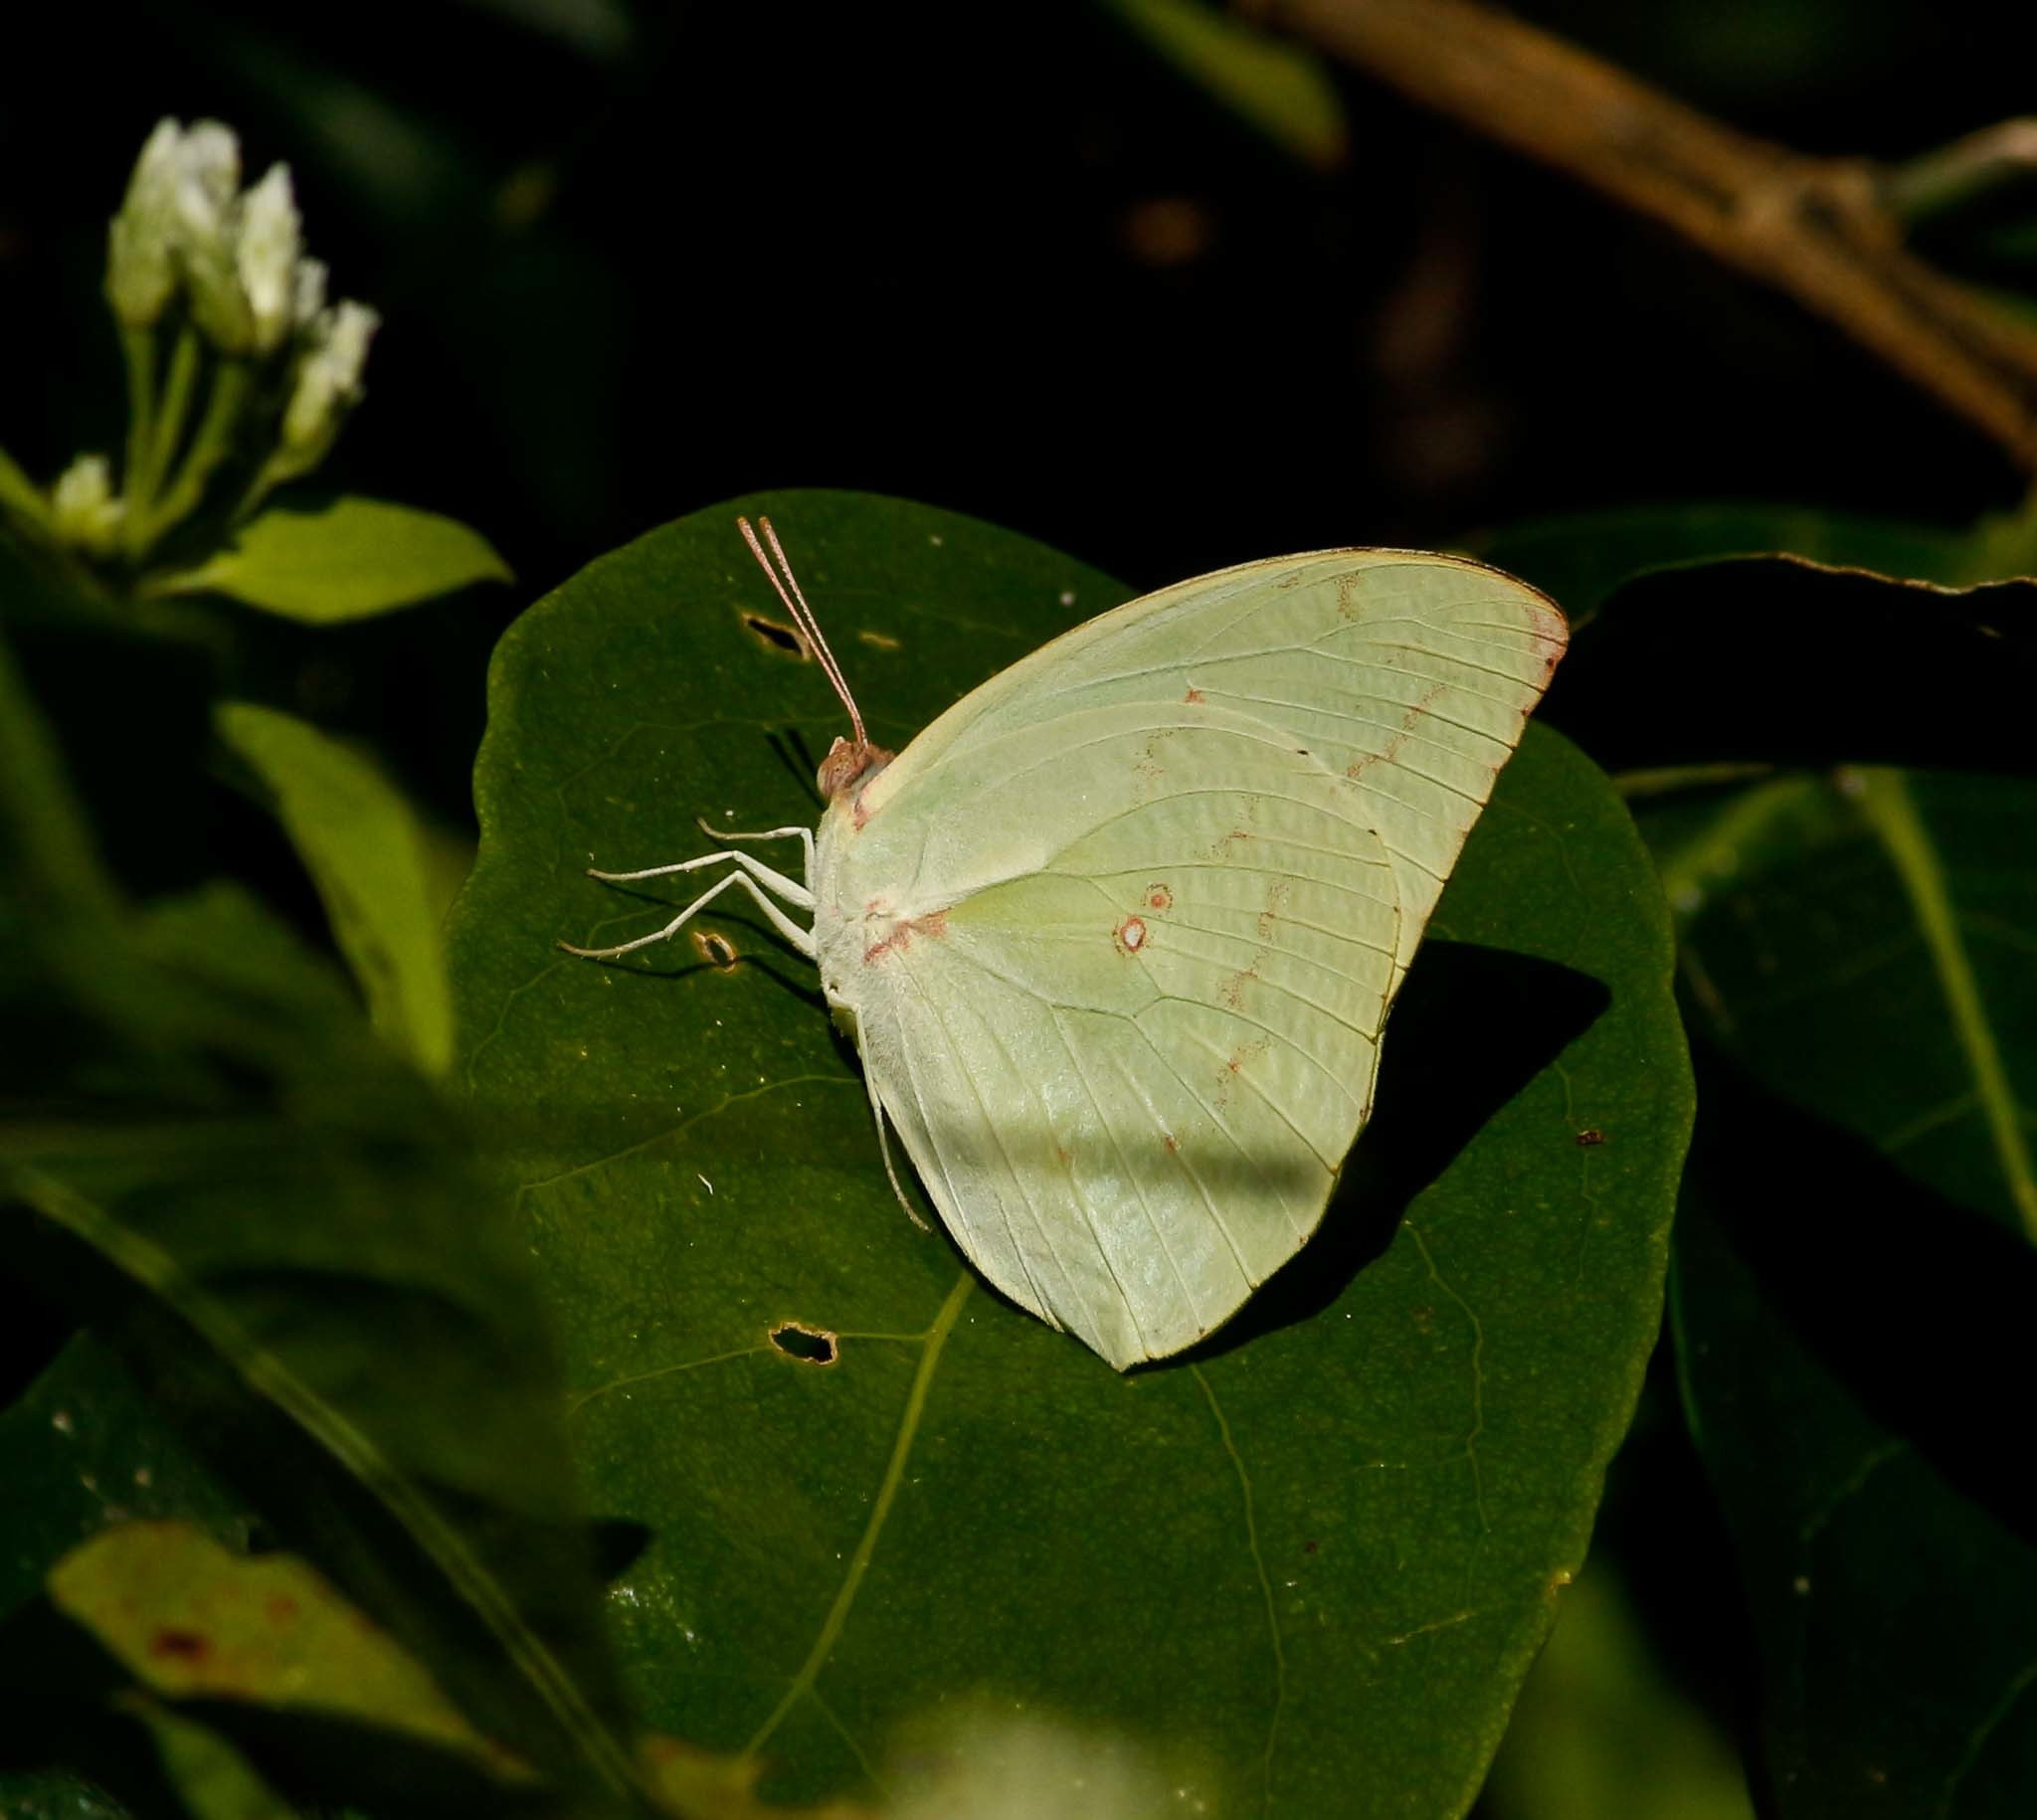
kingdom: Animalia
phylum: Arthropoda
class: Insecta
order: Lepidoptera
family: Pieridae
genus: Catopsilia
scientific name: Catopsilia pomona
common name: Common emigrant
